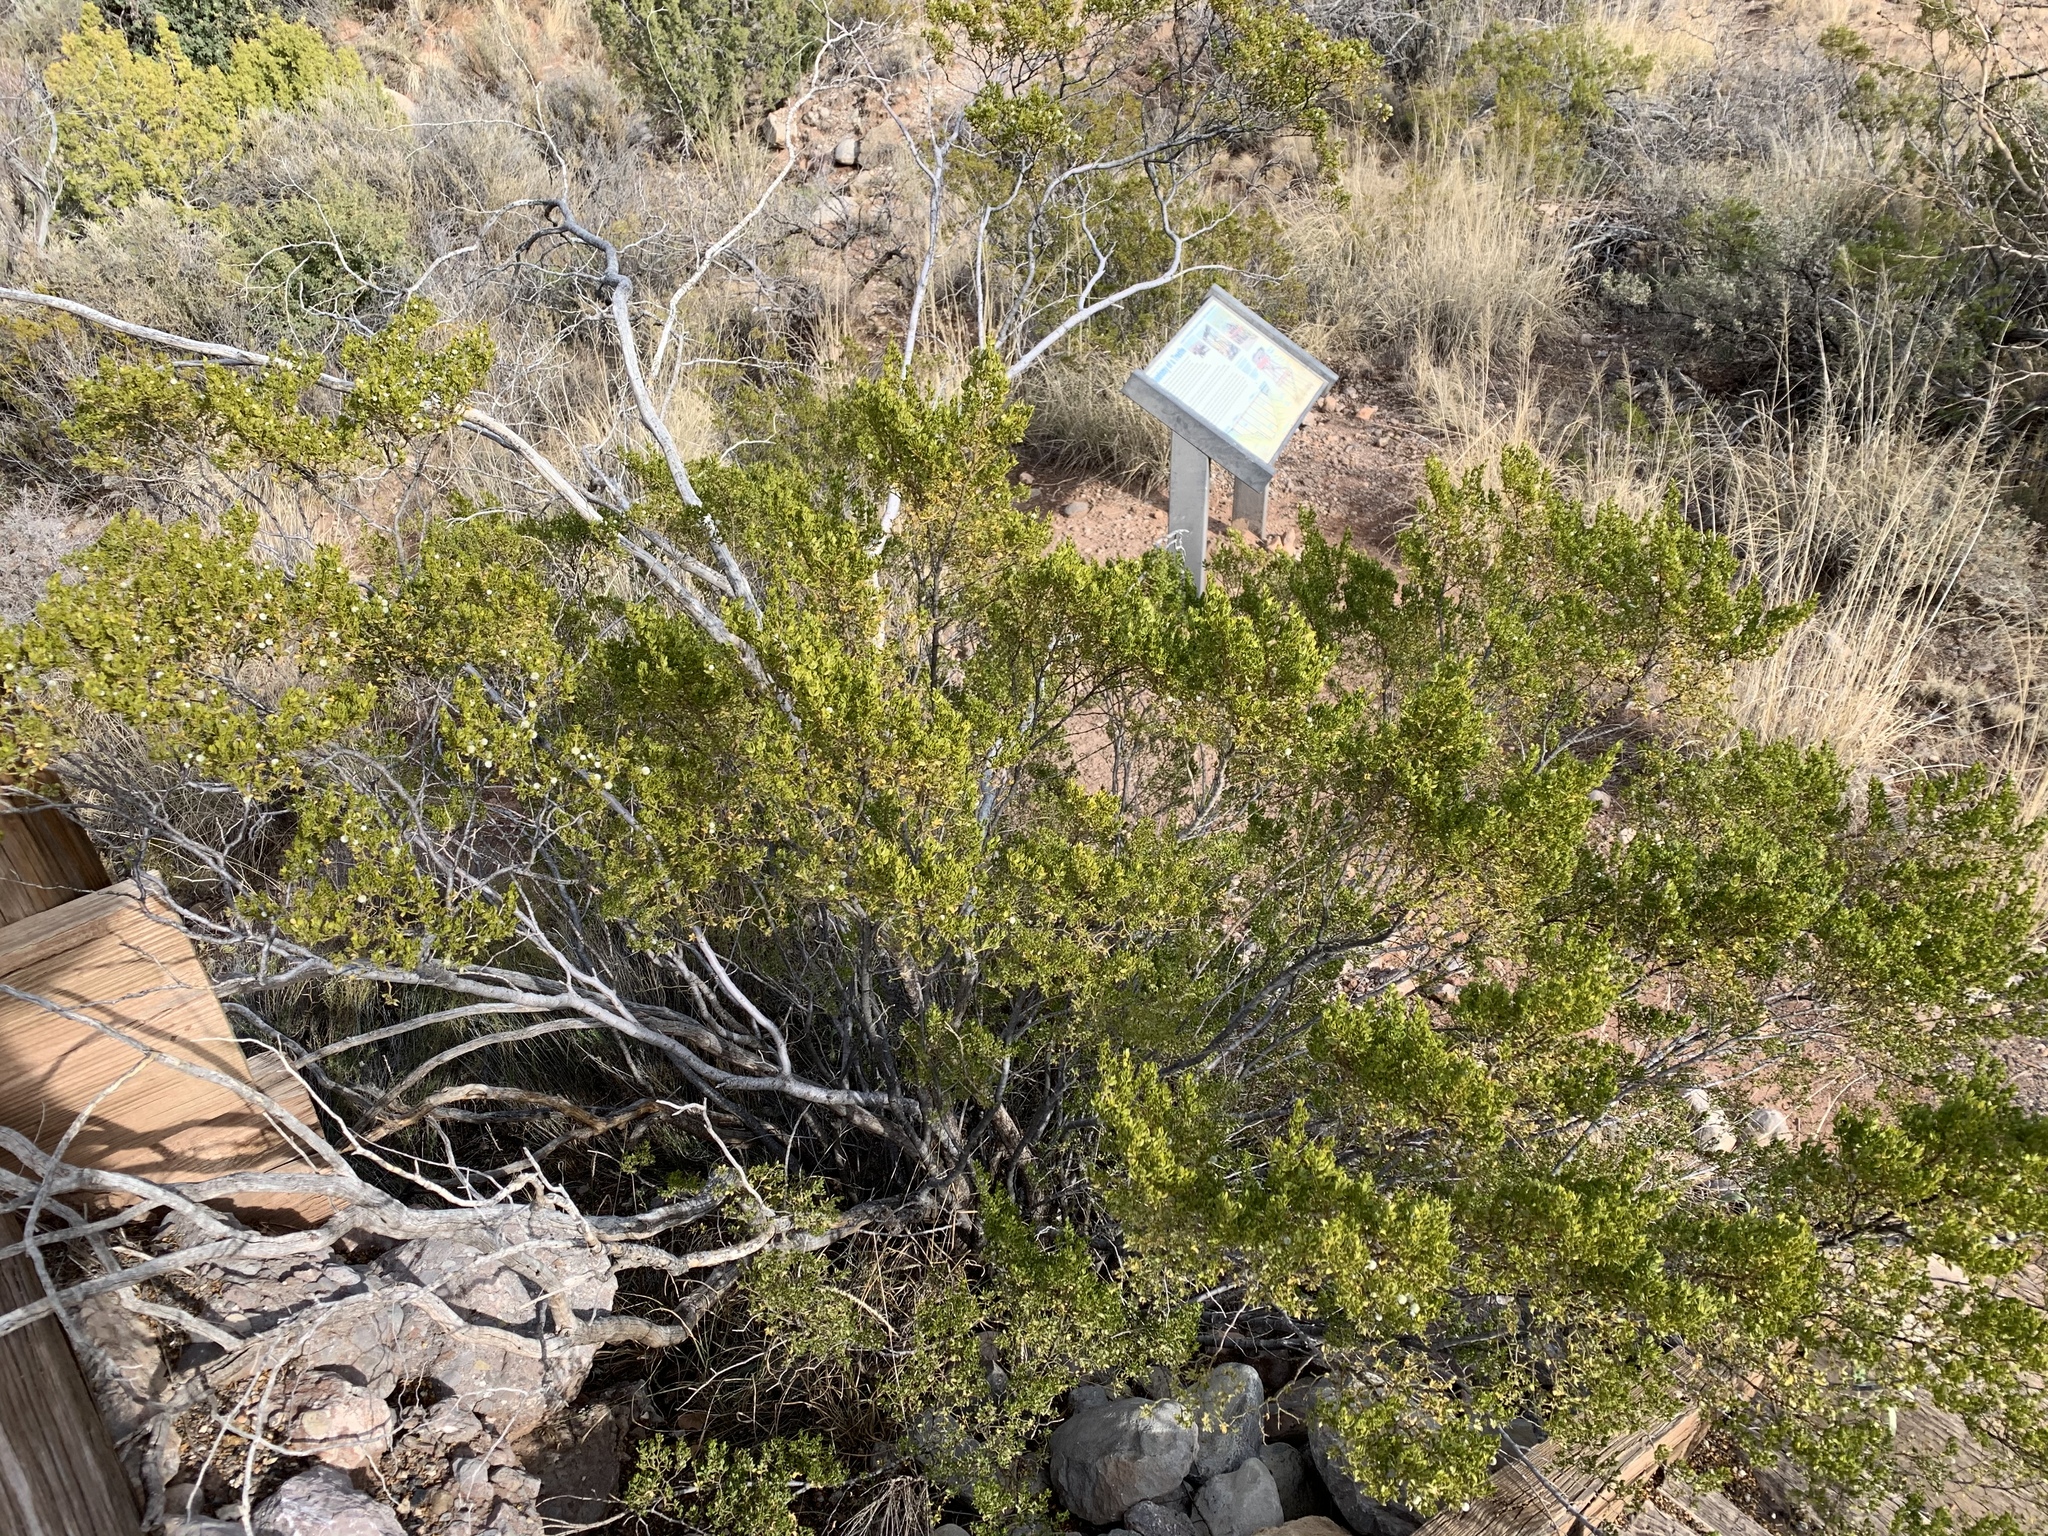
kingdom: Plantae
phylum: Tracheophyta
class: Magnoliopsida
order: Zygophyllales
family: Zygophyllaceae
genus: Larrea
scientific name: Larrea tridentata
